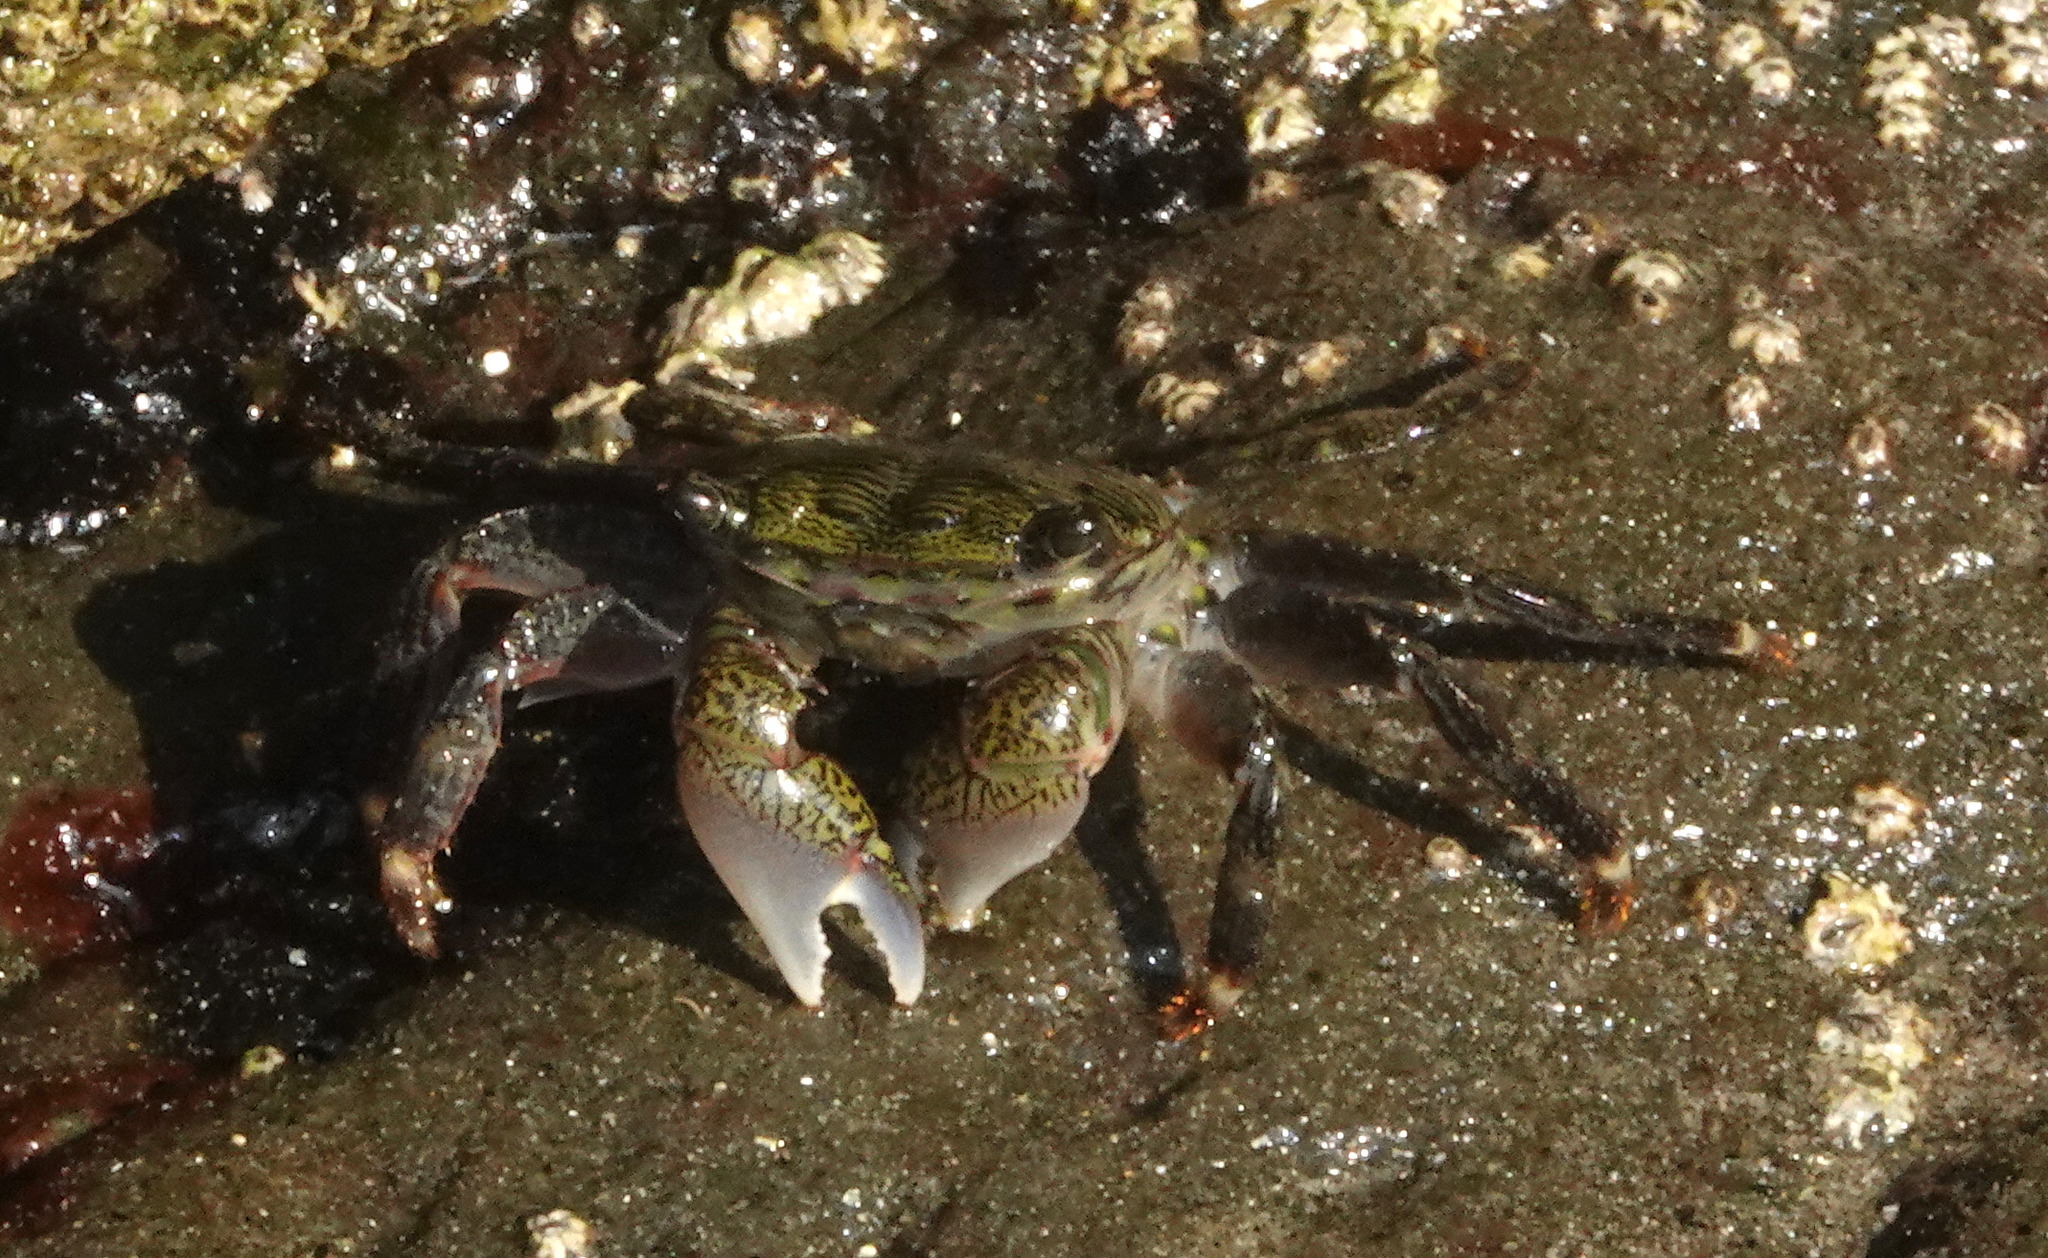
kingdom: Animalia
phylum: Arthropoda
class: Malacostraca
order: Decapoda
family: Grapsidae
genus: Pachygrapsus
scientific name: Pachygrapsus crassipes
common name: Striped shore crab
